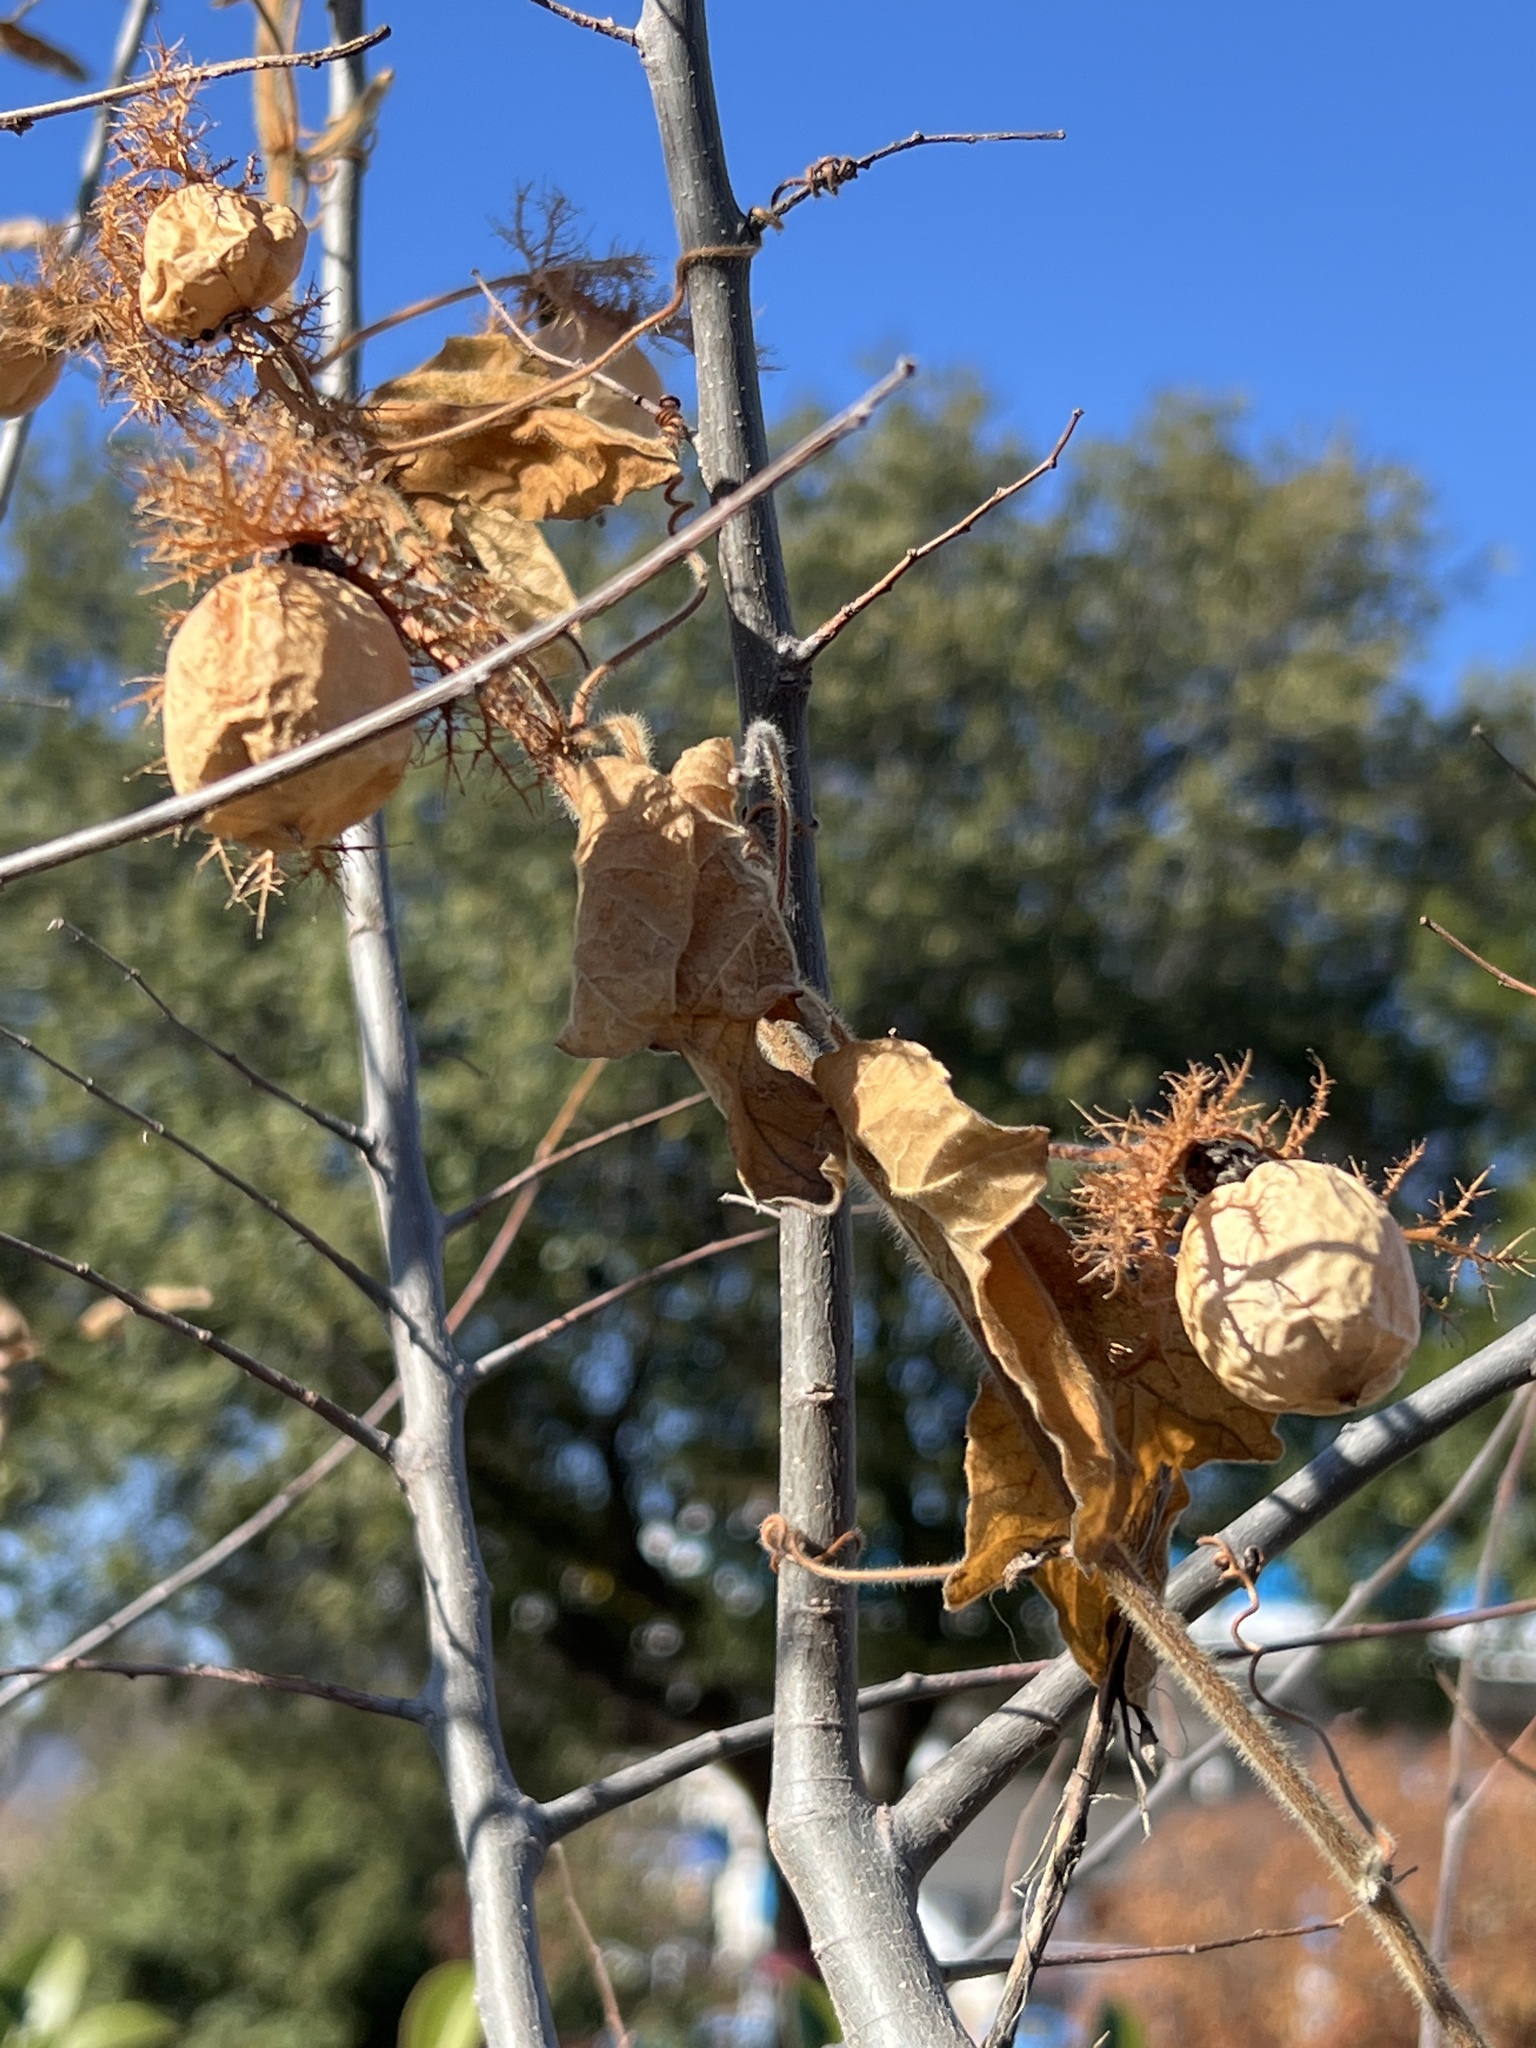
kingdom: Plantae
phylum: Tracheophyta
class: Magnoliopsida
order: Malpighiales
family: Passifloraceae
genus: Passiflora
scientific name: Passiflora
